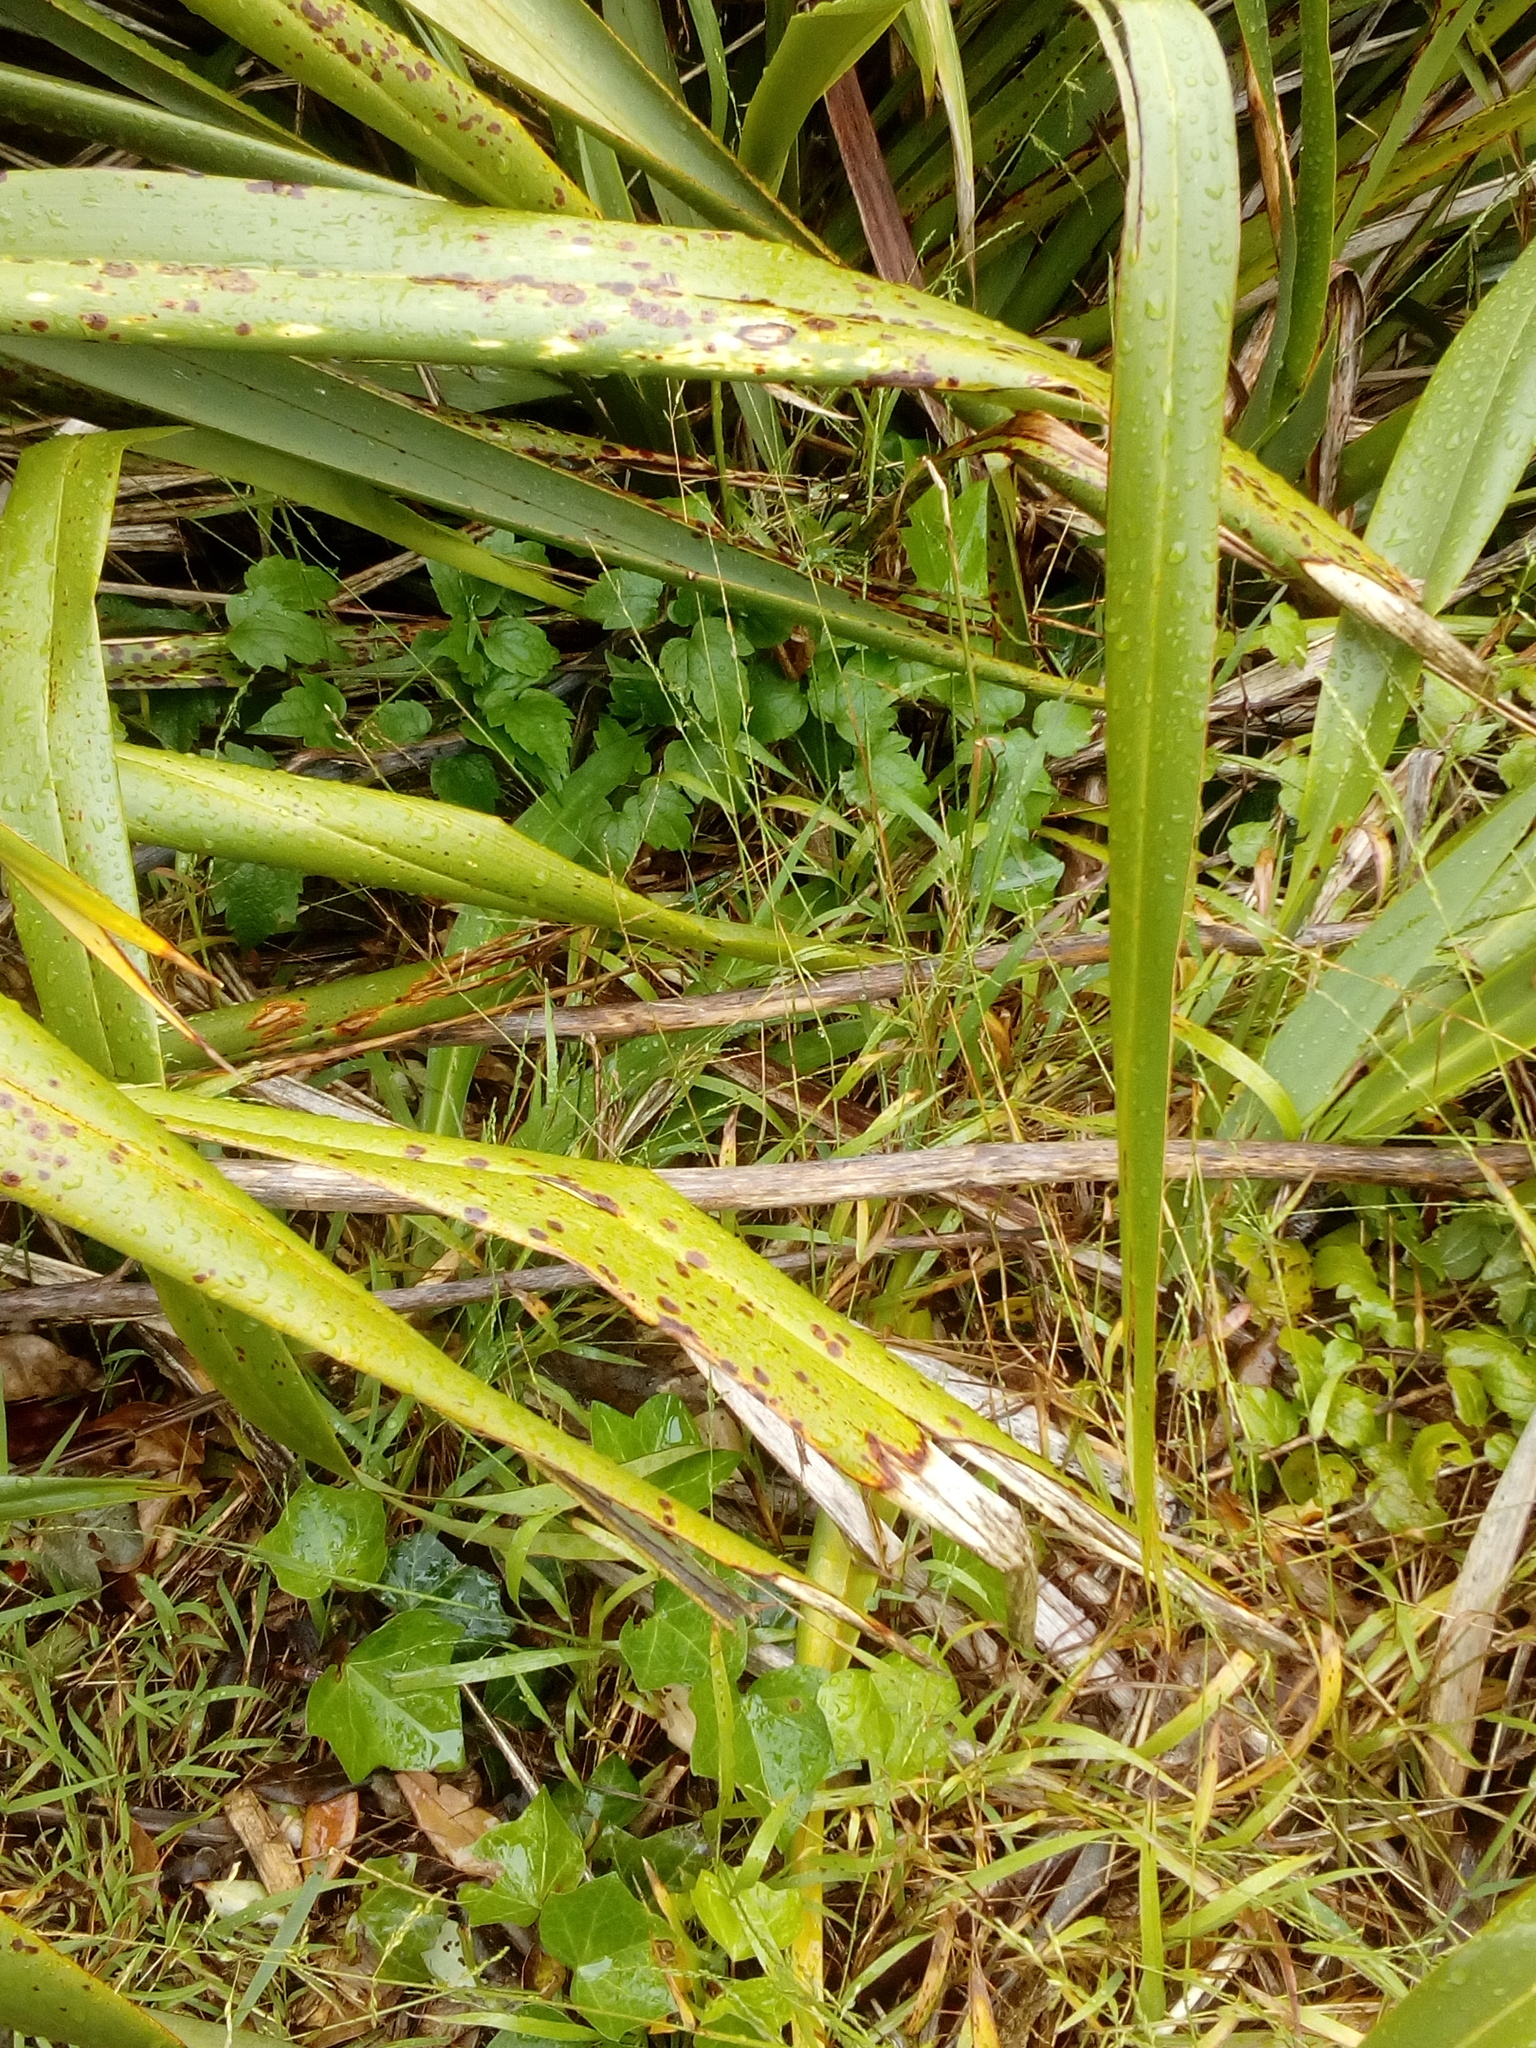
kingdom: Plantae
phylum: Tracheophyta
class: Magnoliopsida
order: Ranunculales
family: Ranunculaceae
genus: Clematis
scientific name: Clematis vitalba
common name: Evergreen clematis
